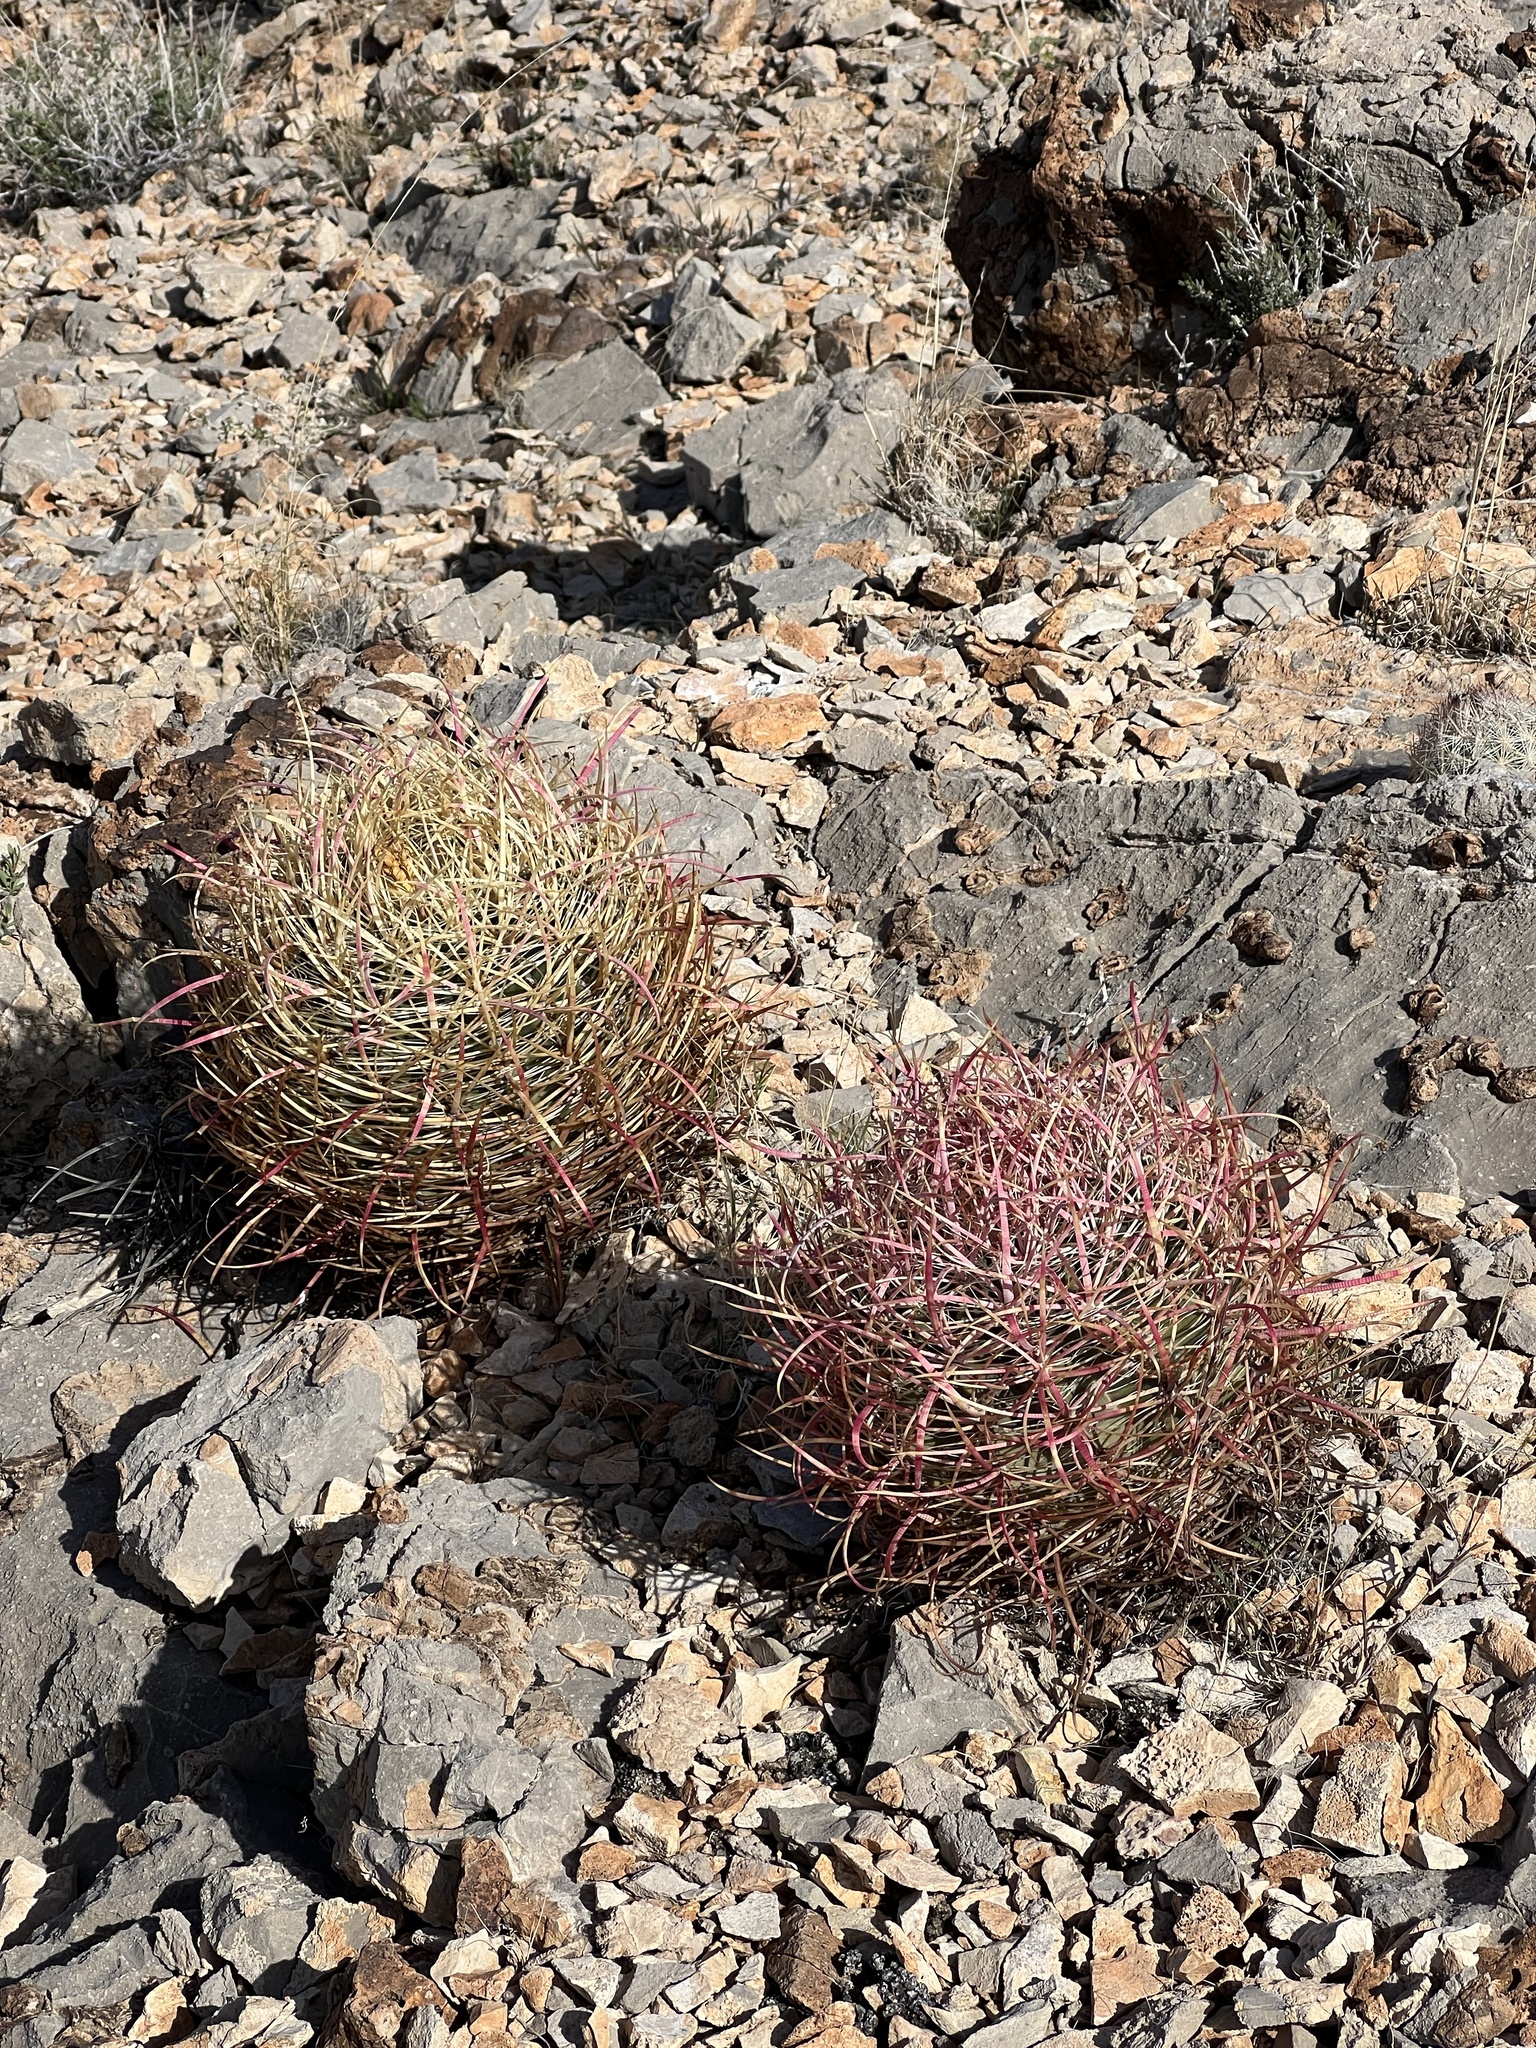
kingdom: Plantae
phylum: Tracheophyta
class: Magnoliopsida
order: Caryophyllales
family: Cactaceae
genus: Ferocactus
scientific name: Ferocactus cylindraceus
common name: California barrel cactus
